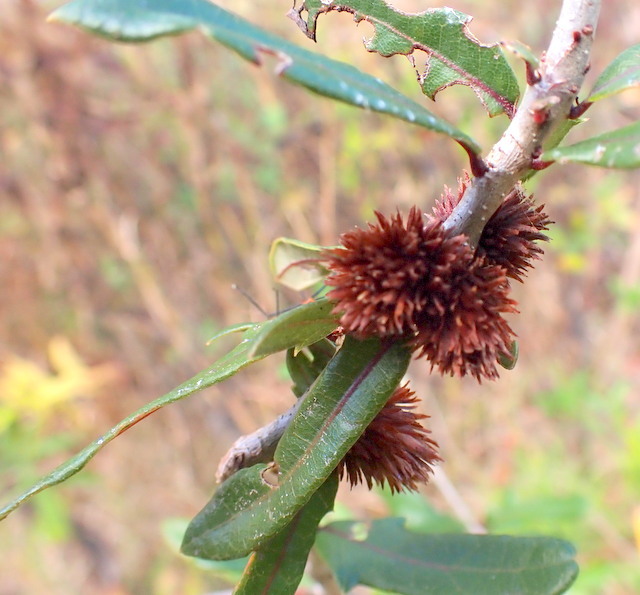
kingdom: Animalia
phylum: Arthropoda
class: Insecta
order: Hymenoptera
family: Cynipidae
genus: Andricus
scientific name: Andricus quercusfoliatus
